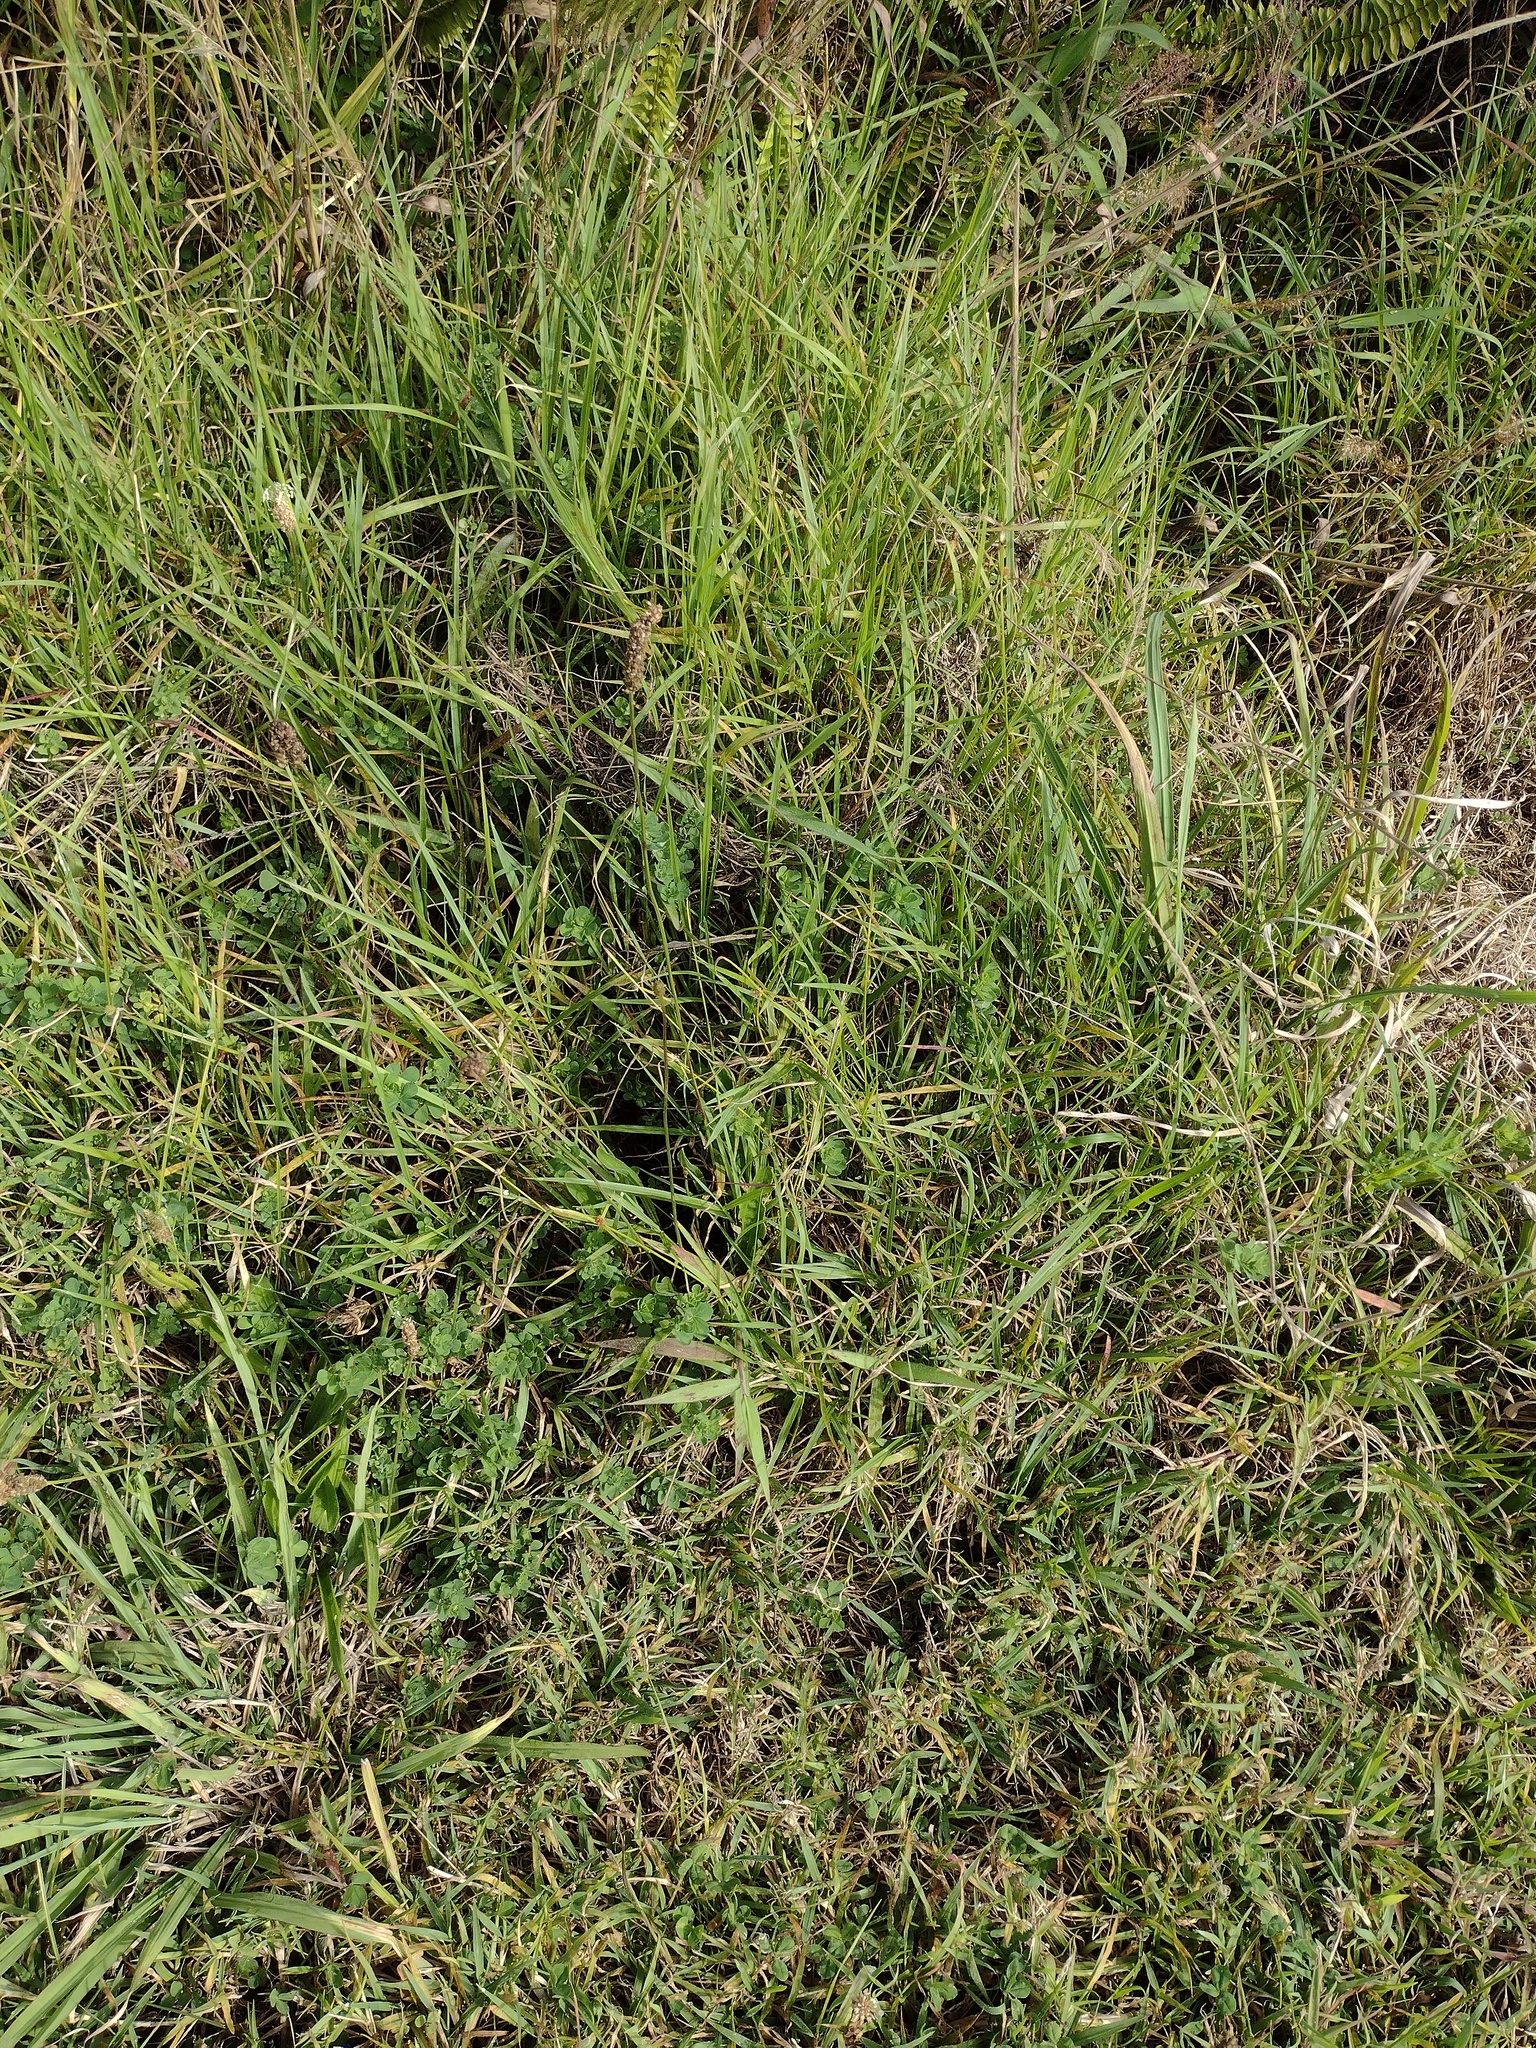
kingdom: Plantae
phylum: Tracheophyta
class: Magnoliopsida
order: Lamiales
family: Plantaginaceae
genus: Plantago
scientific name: Plantago lanceolata
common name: Ribwort plantain
